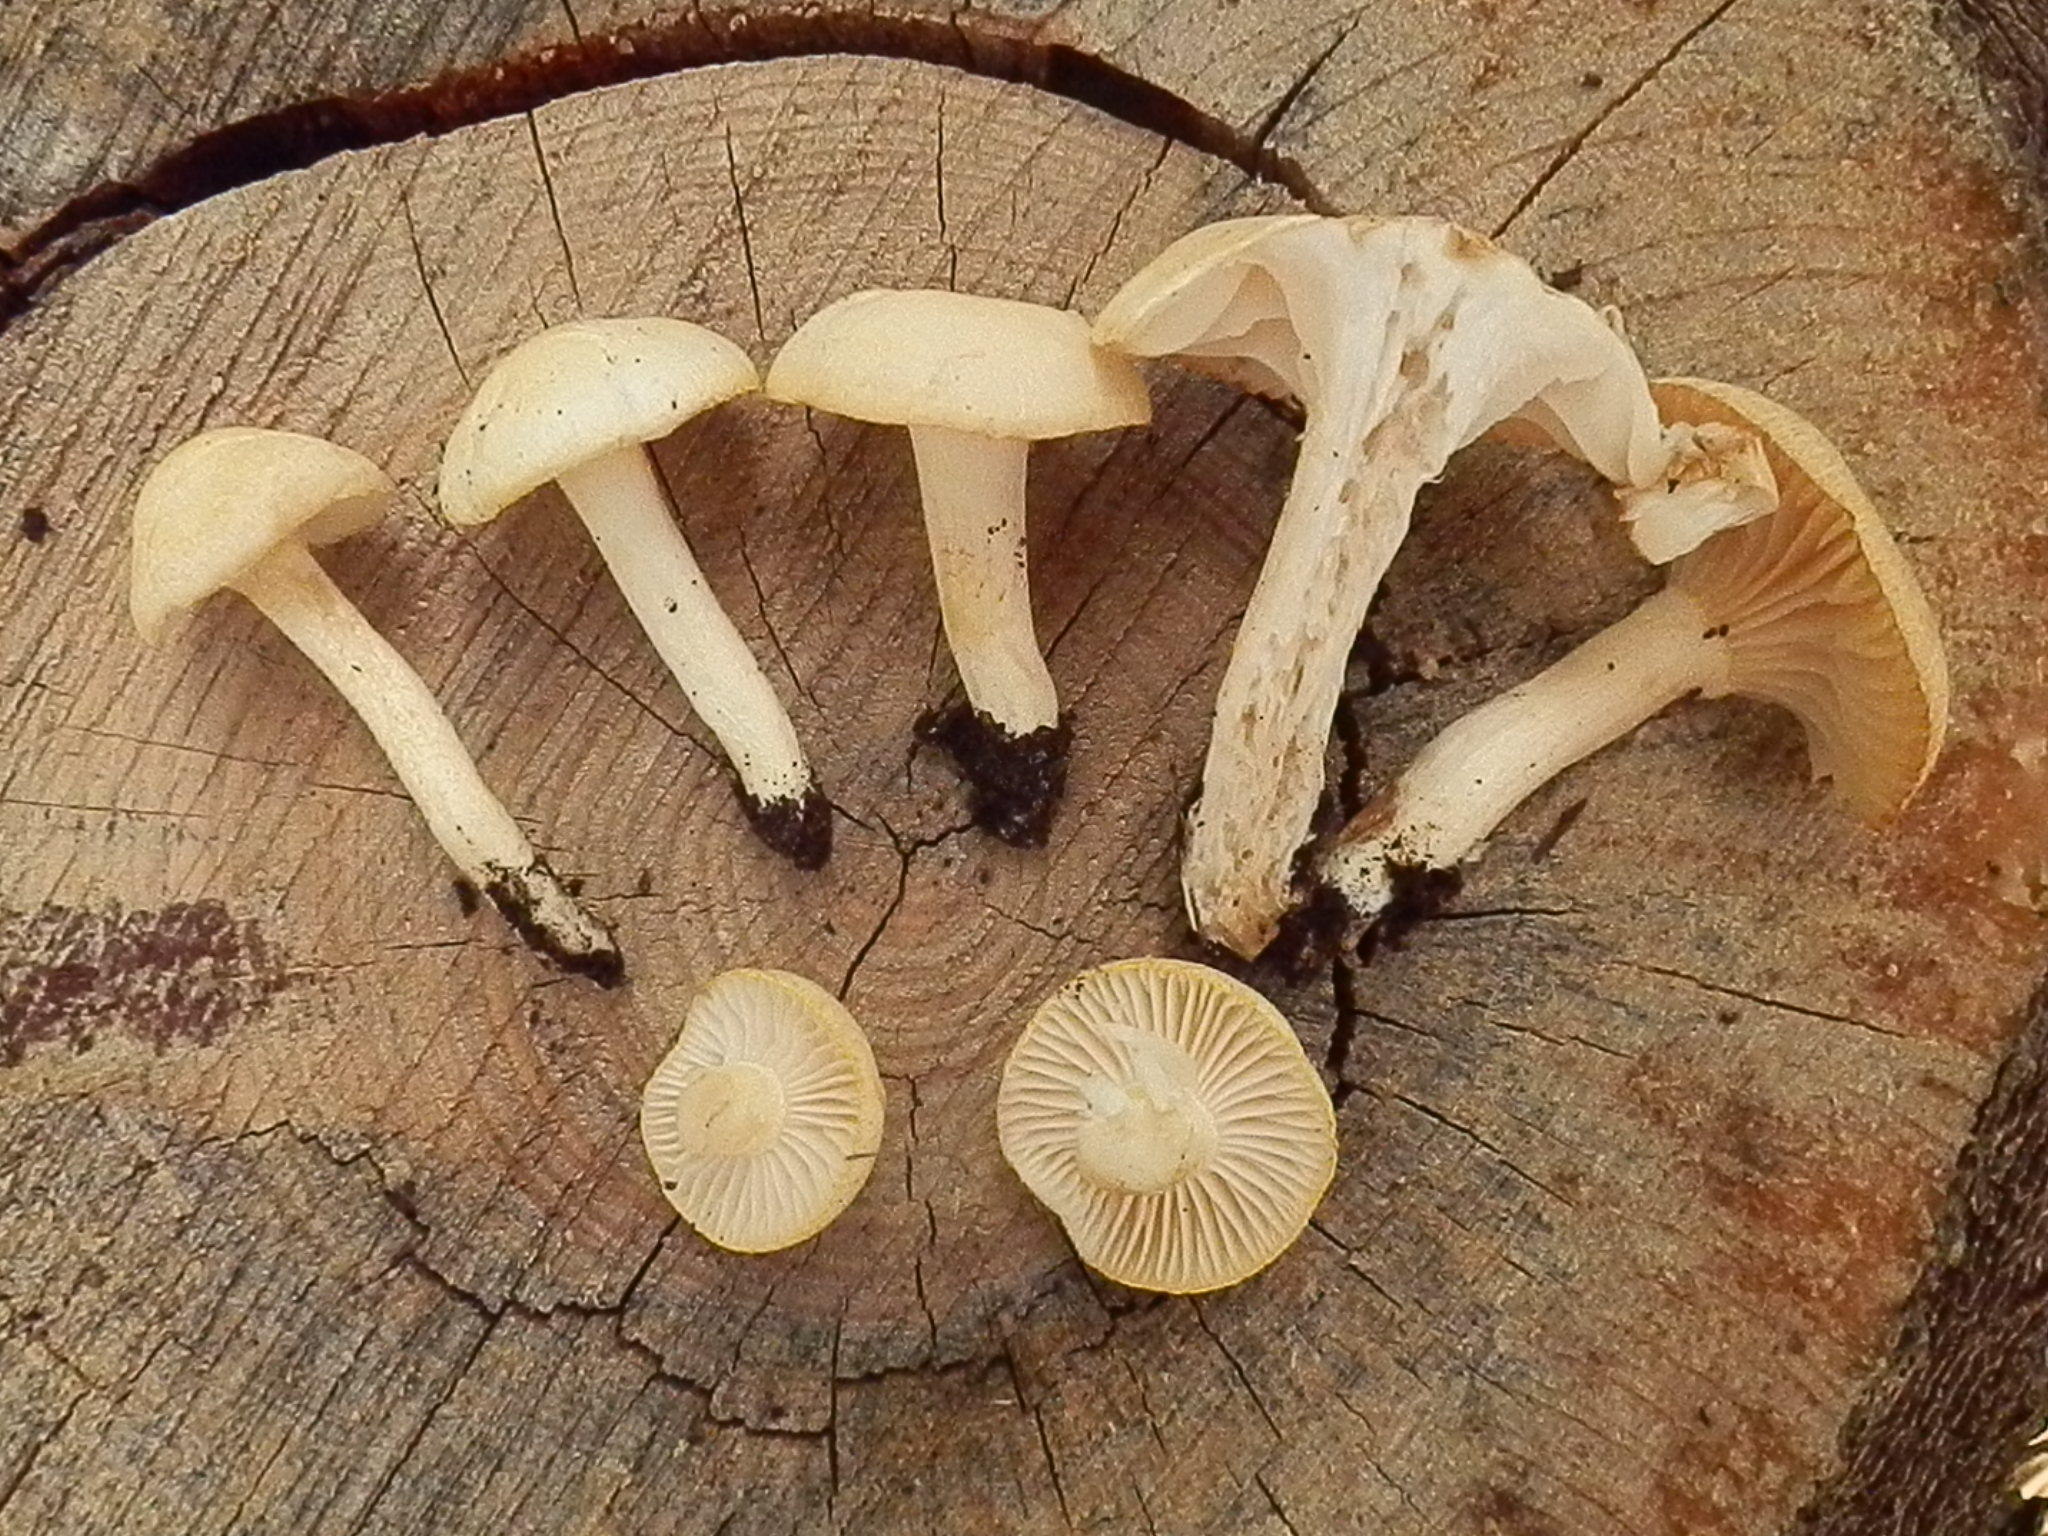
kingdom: Fungi
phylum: Basidiomycota
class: Agaricomycetes
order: Agaricales
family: Hygrophoraceae
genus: Hygrophorus
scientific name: Hygrophorus chrysodon
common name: Gold flecked woodwax
